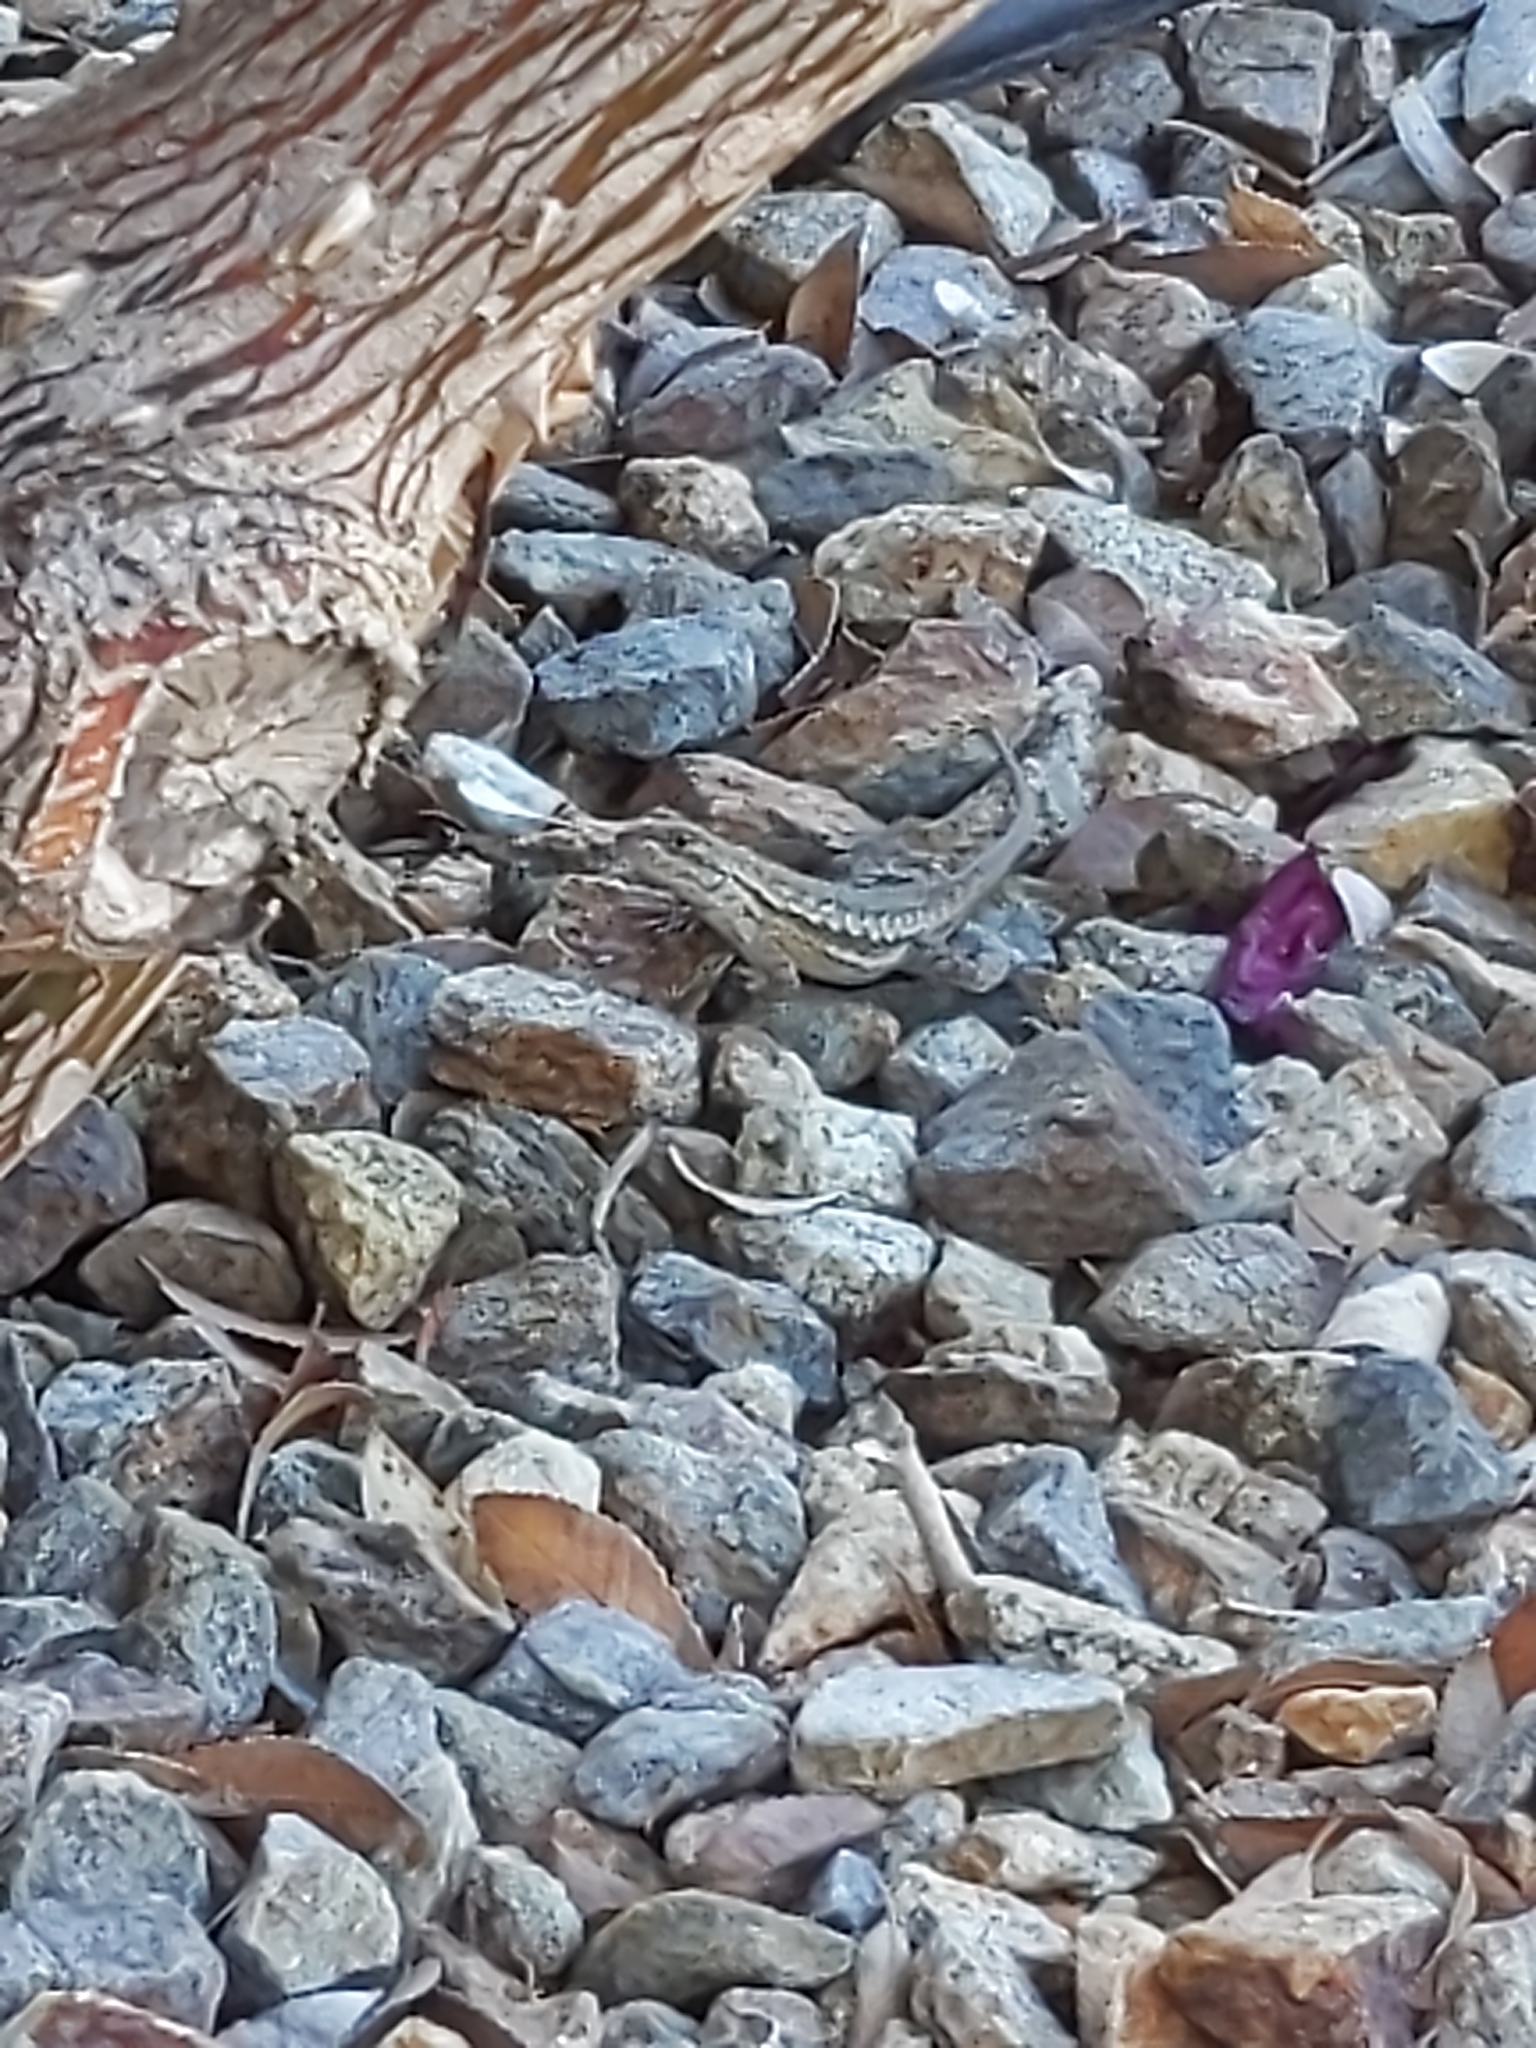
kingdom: Animalia
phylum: Chordata
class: Squamata
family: Phrynosomatidae
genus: Sceloporus
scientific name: Sceloporus occidentalis
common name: Western fence lizard
